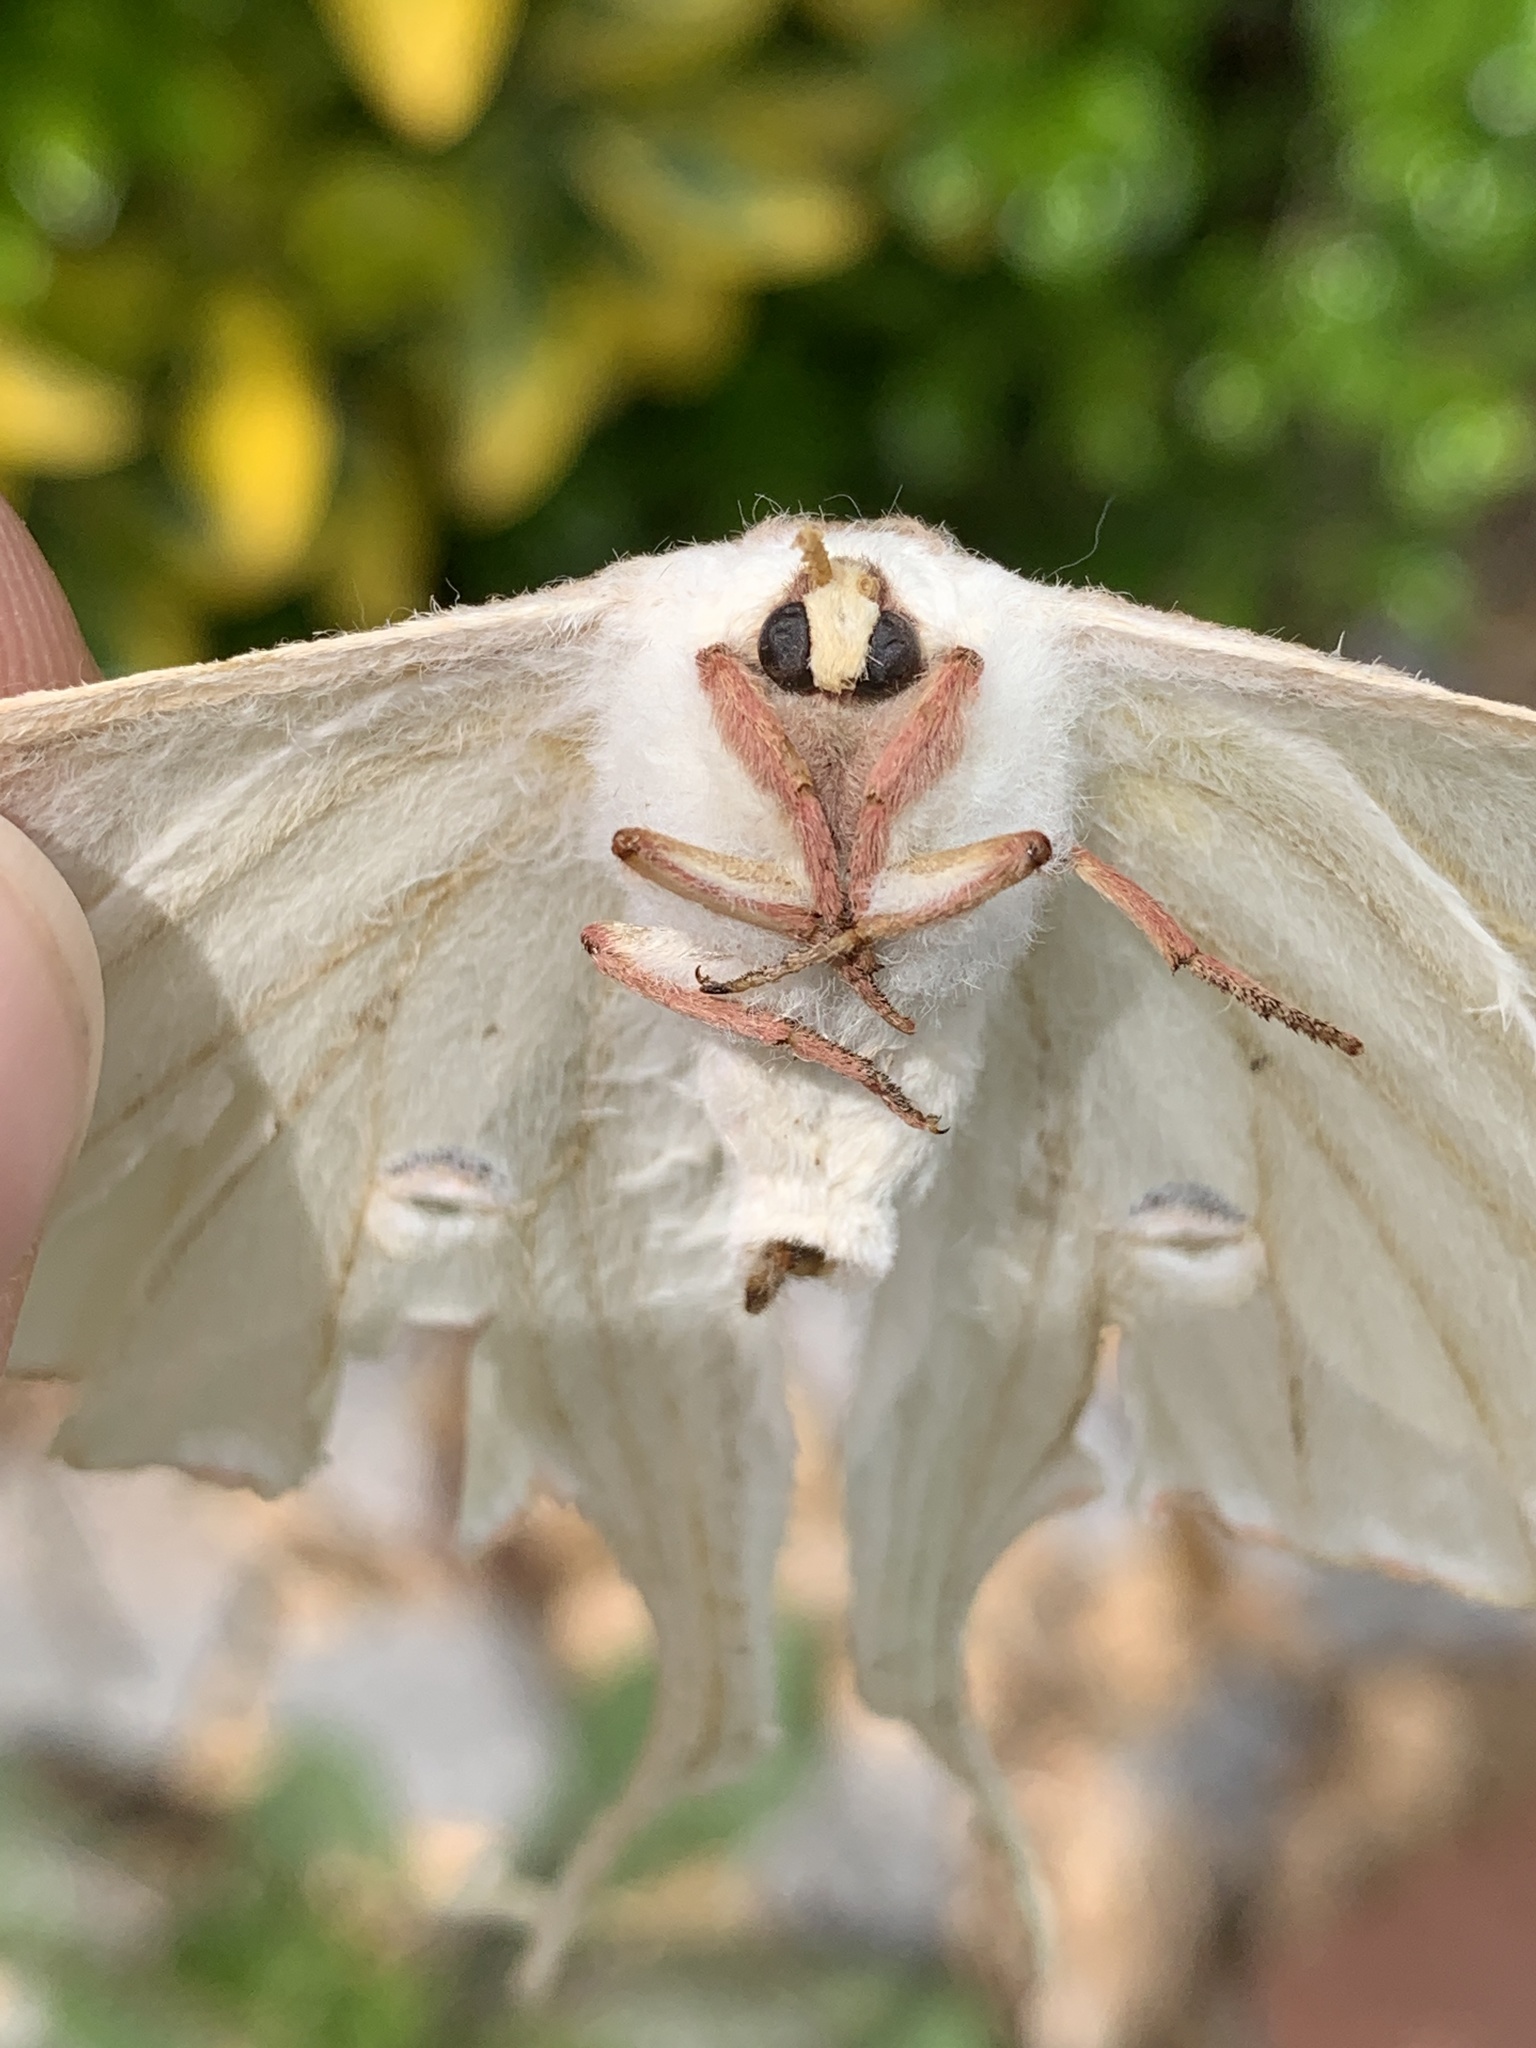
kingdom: Animalia
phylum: Arthropoda
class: Insecta
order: Lepidoptera
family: Saturniidae
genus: Actias
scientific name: Actias luna
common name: Luna moth
